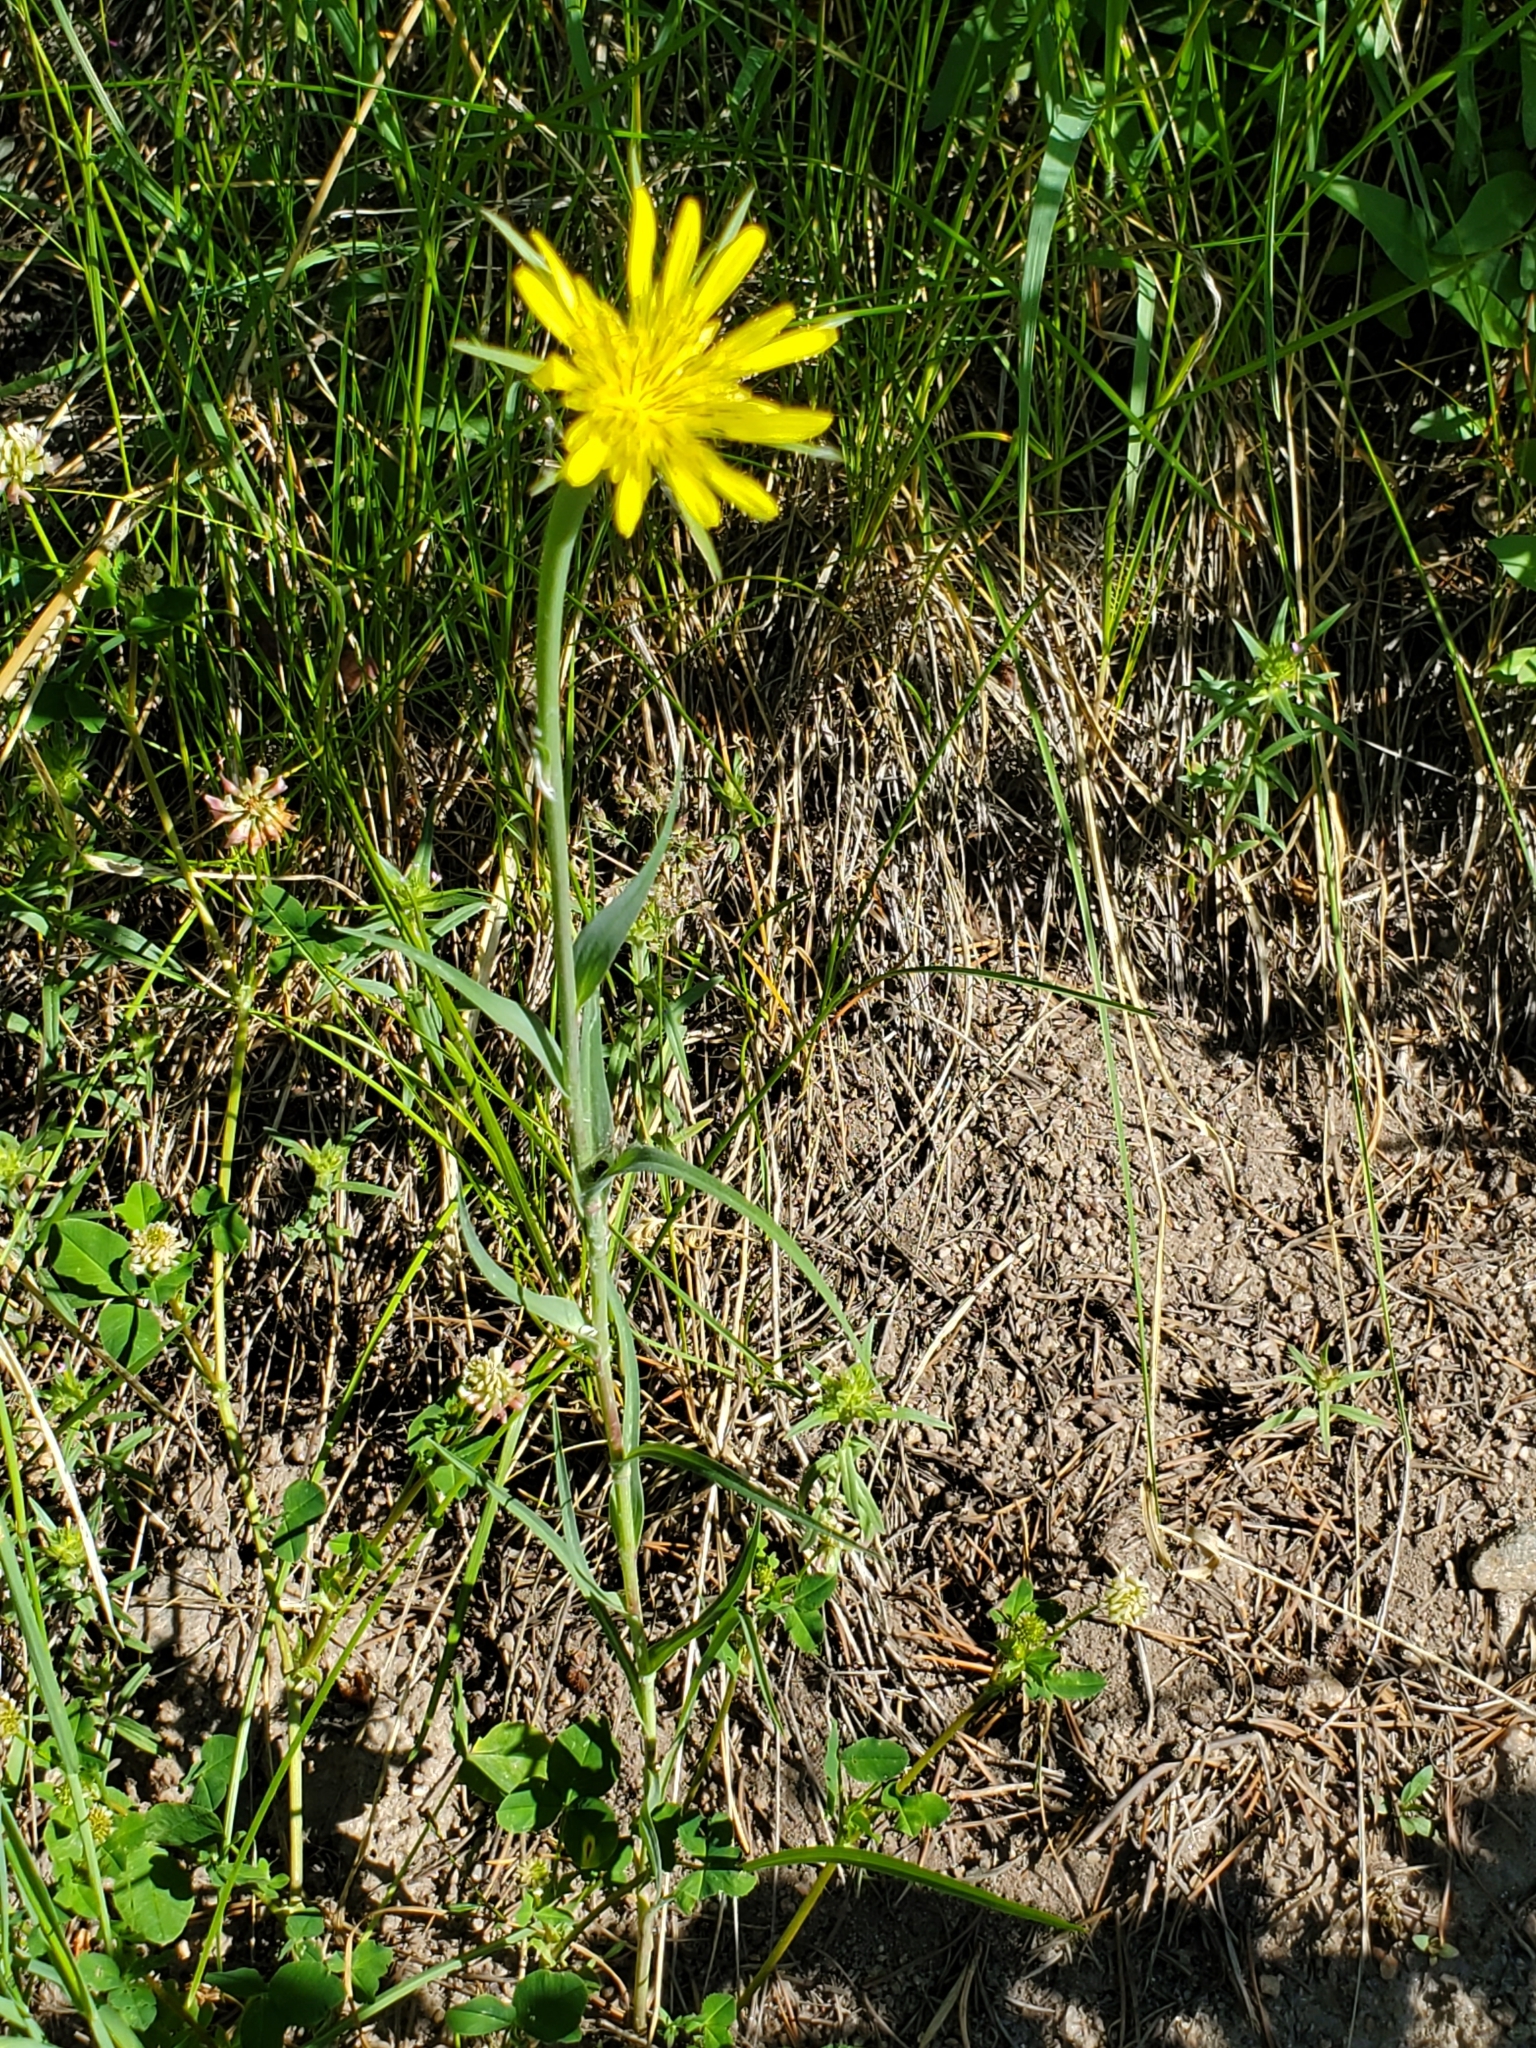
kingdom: Plantae
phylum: Tracheophyta
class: Magnoliopsida
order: Asterales
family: Asteraceae
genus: Tragopogon
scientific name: Tragopogon dubius
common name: Yellow salsify
